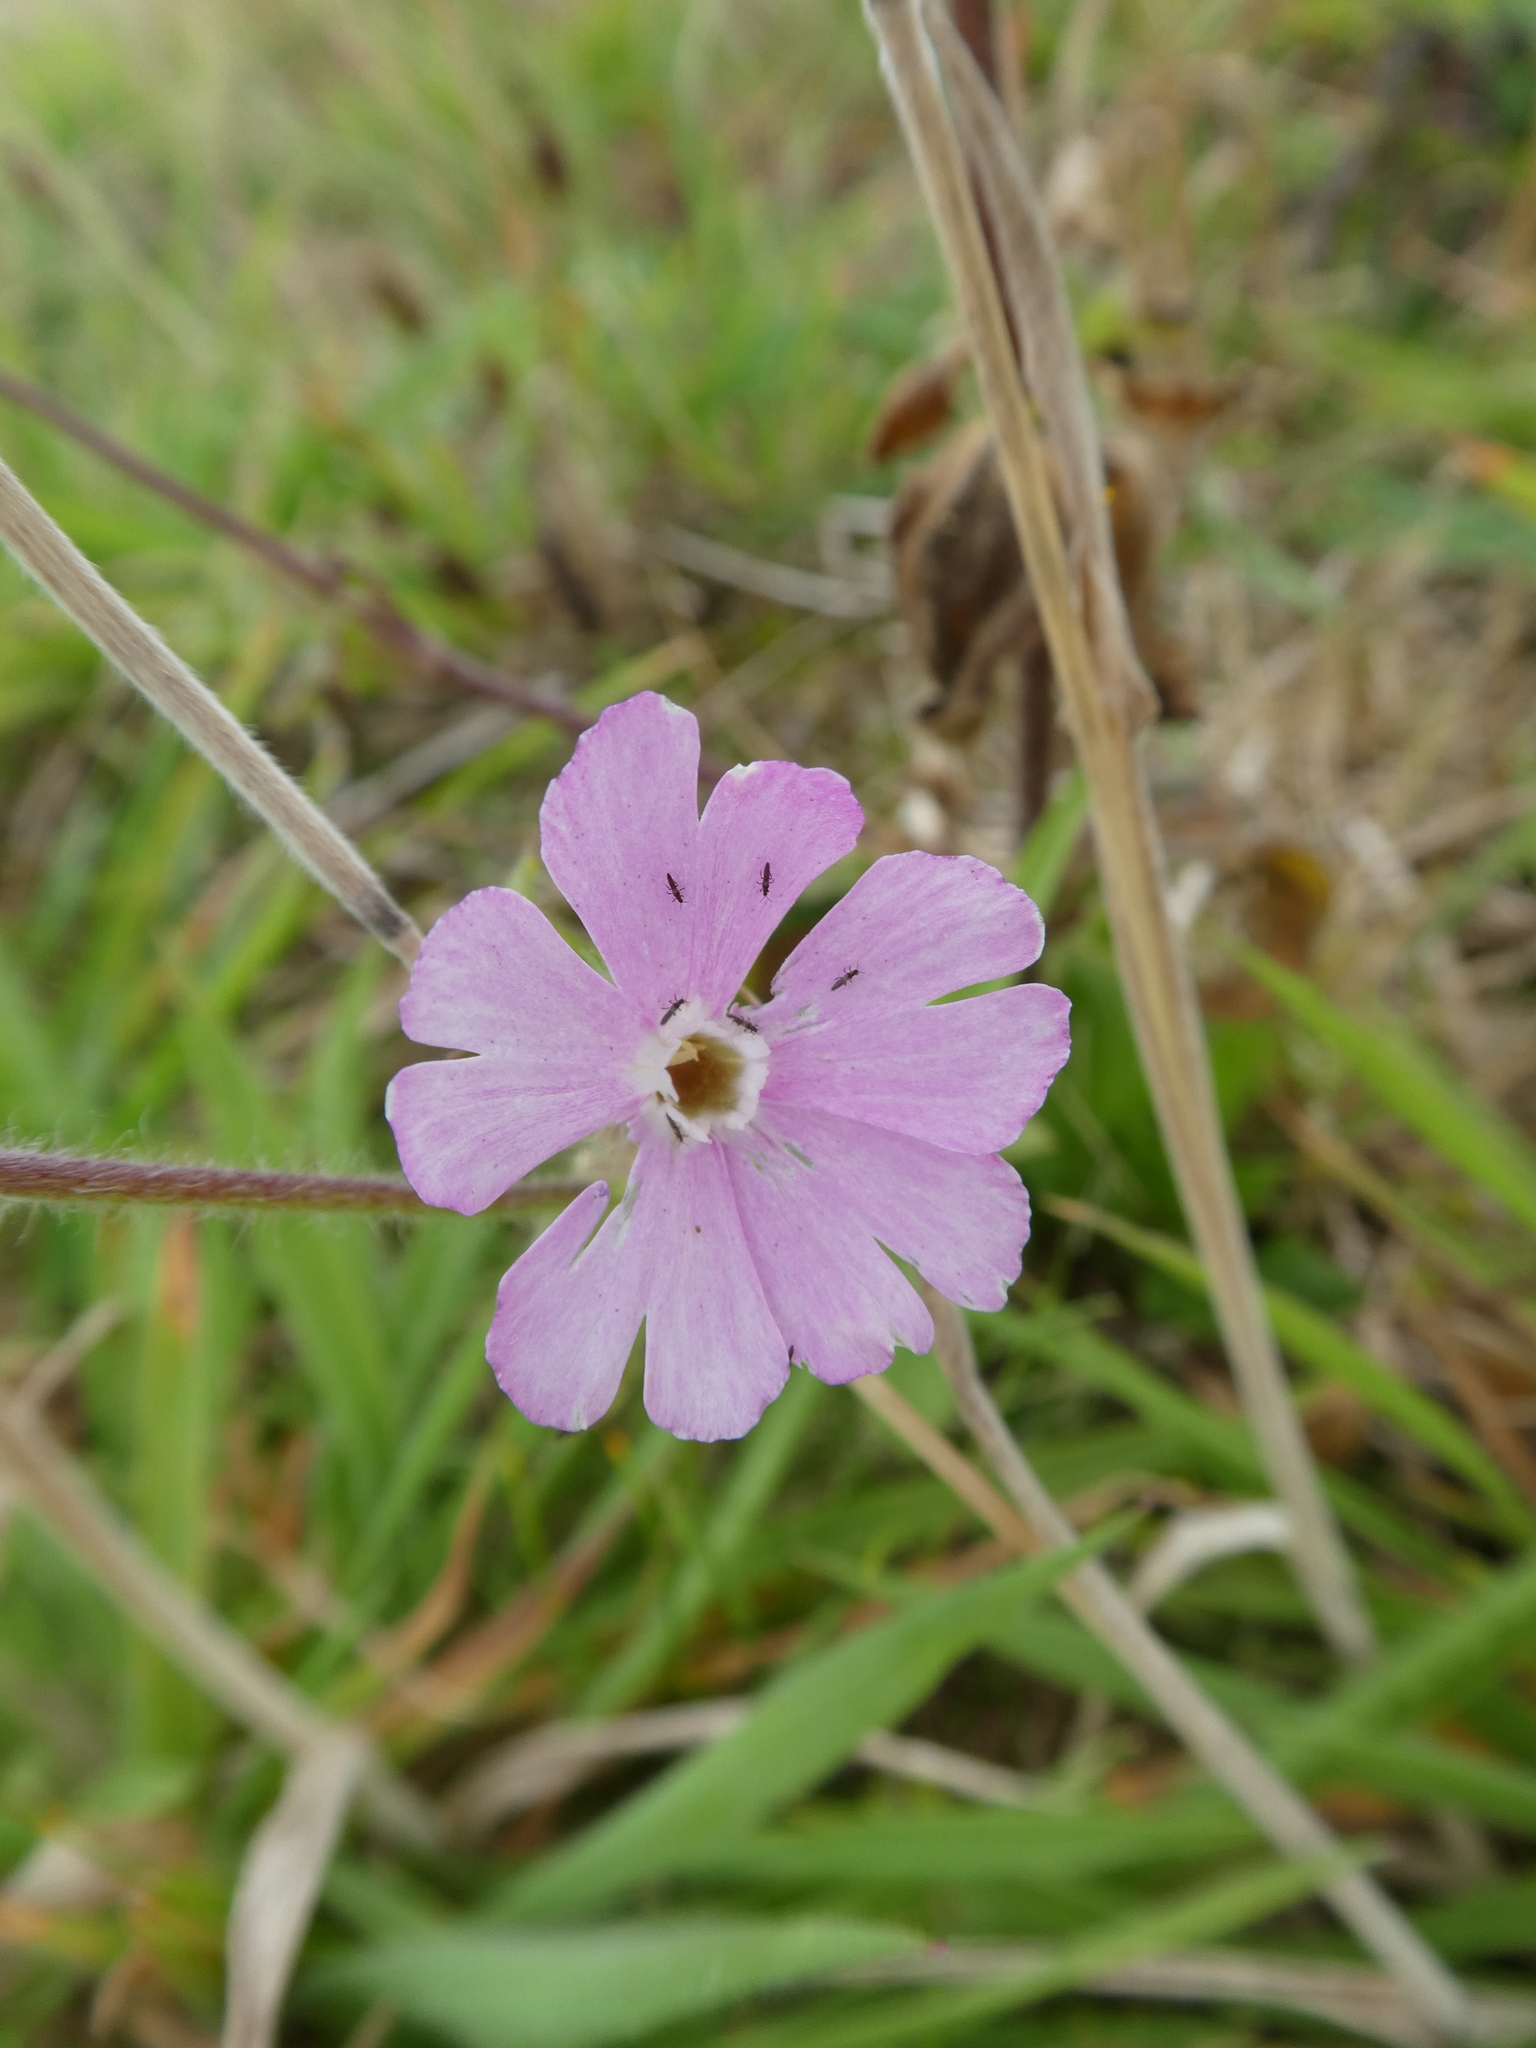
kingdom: Plantae
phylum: Tracheophyta
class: Magnoliopsida
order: Caryophyllales
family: Caryophyllaceae
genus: Silene
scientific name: Silene dioica
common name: Red campion
